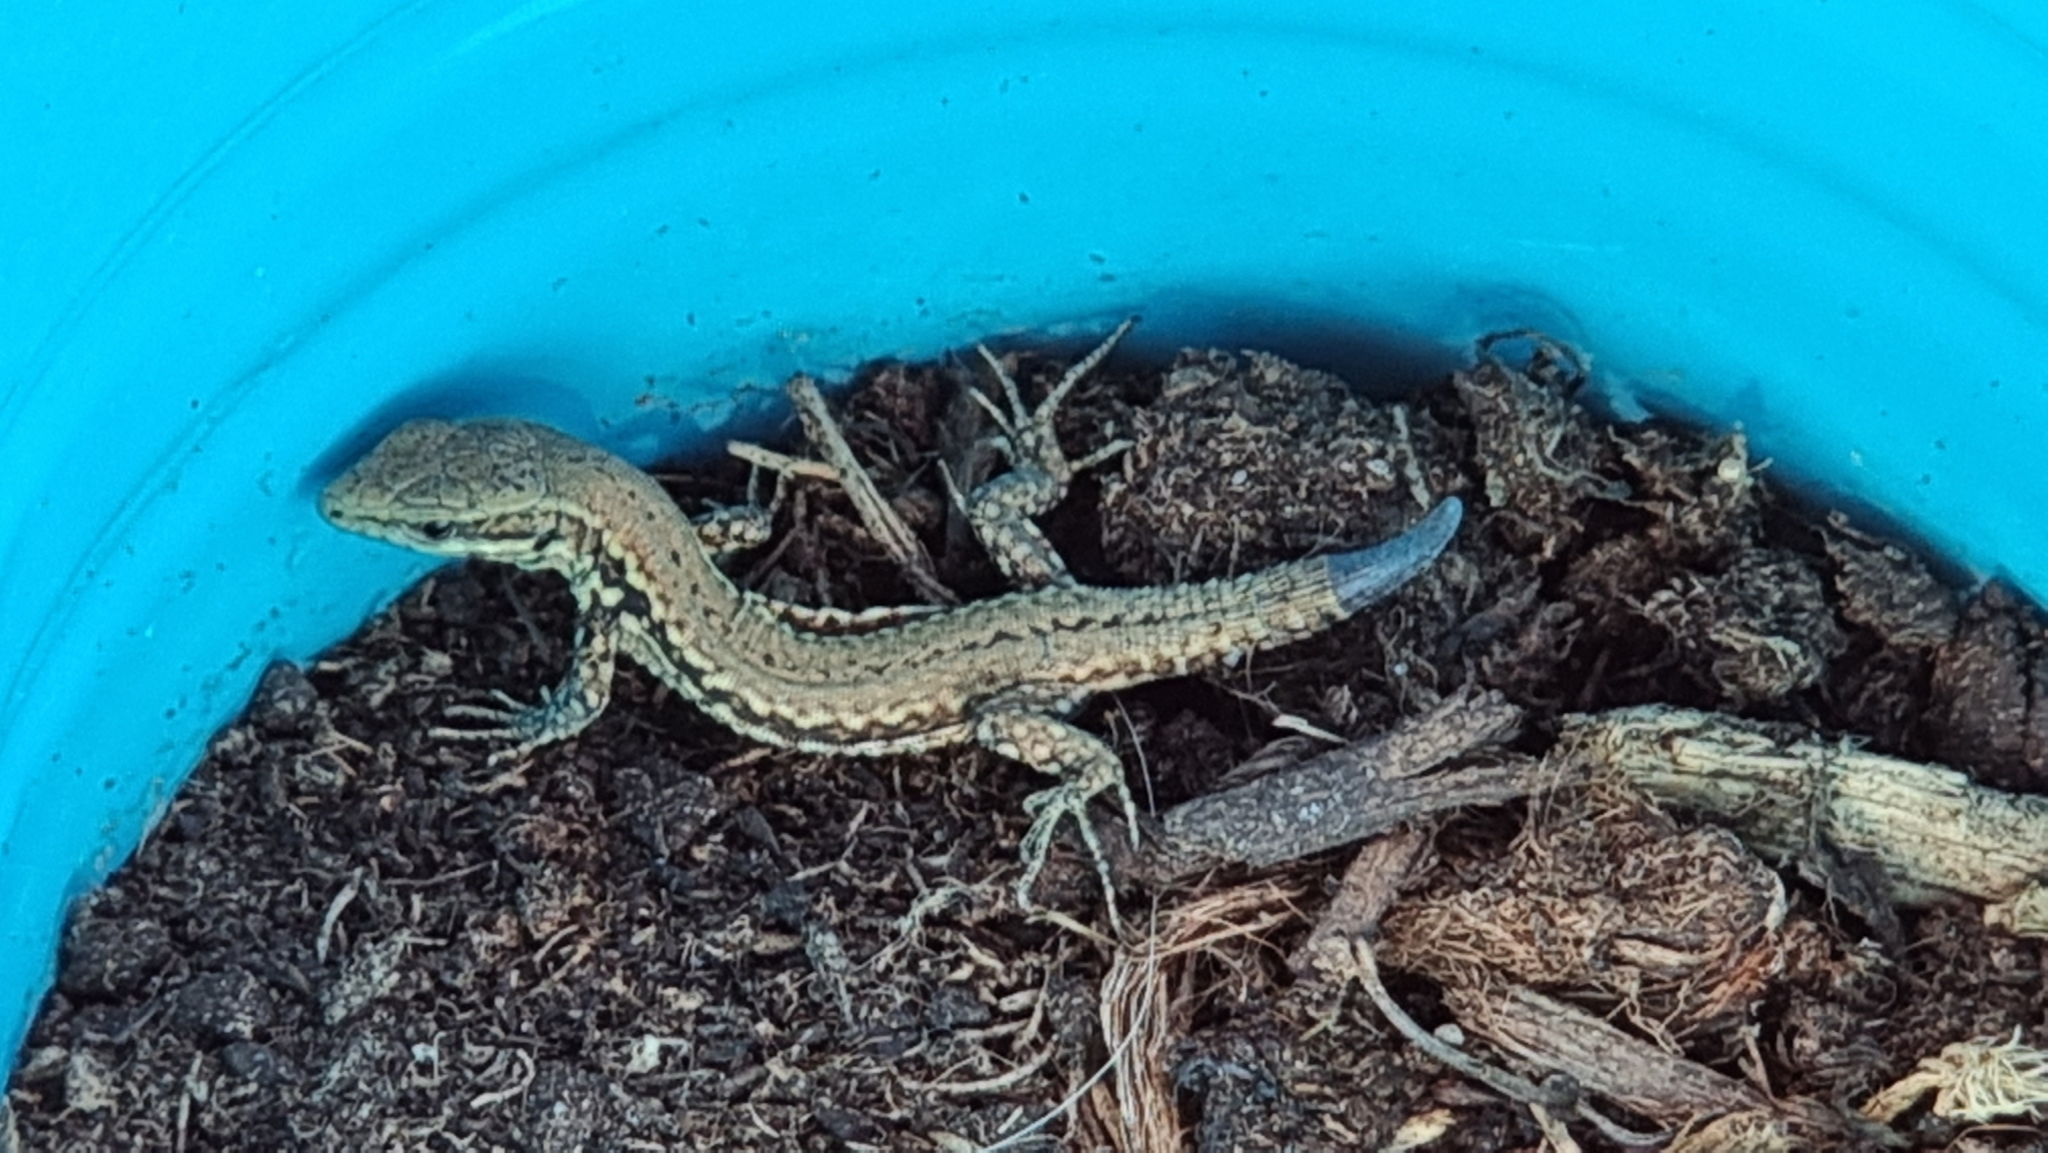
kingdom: Animalia
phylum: Chordata
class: Squamata
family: Lacertidae
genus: Podarcis
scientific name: Podarcis muralis
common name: Common wall lizard
